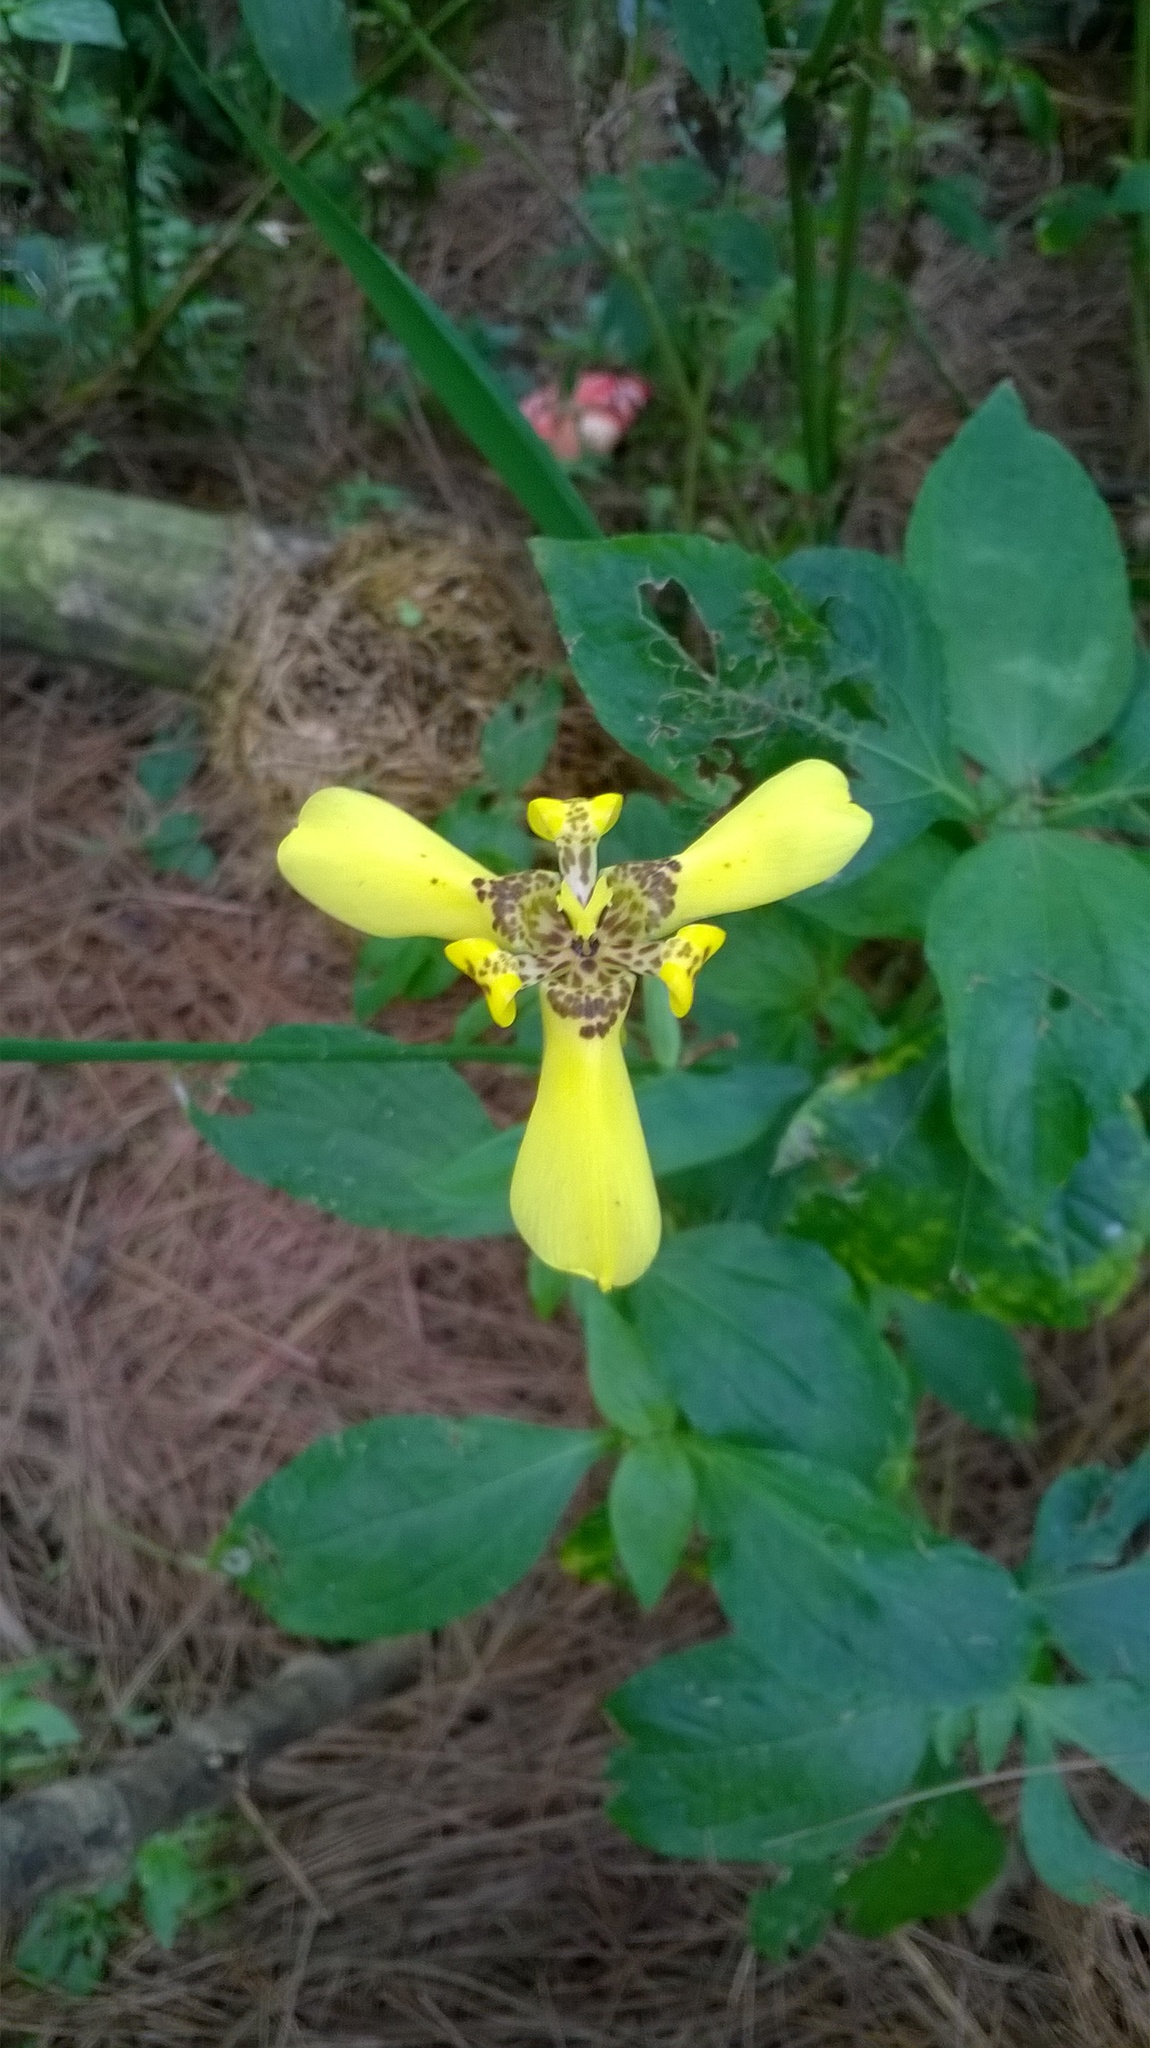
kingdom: Plantae
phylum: Tracheophyta
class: Liliopsida
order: Asparagales
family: Iridaceae
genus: Trimezia
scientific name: Trimezia steyermarkii
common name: Trimezia
